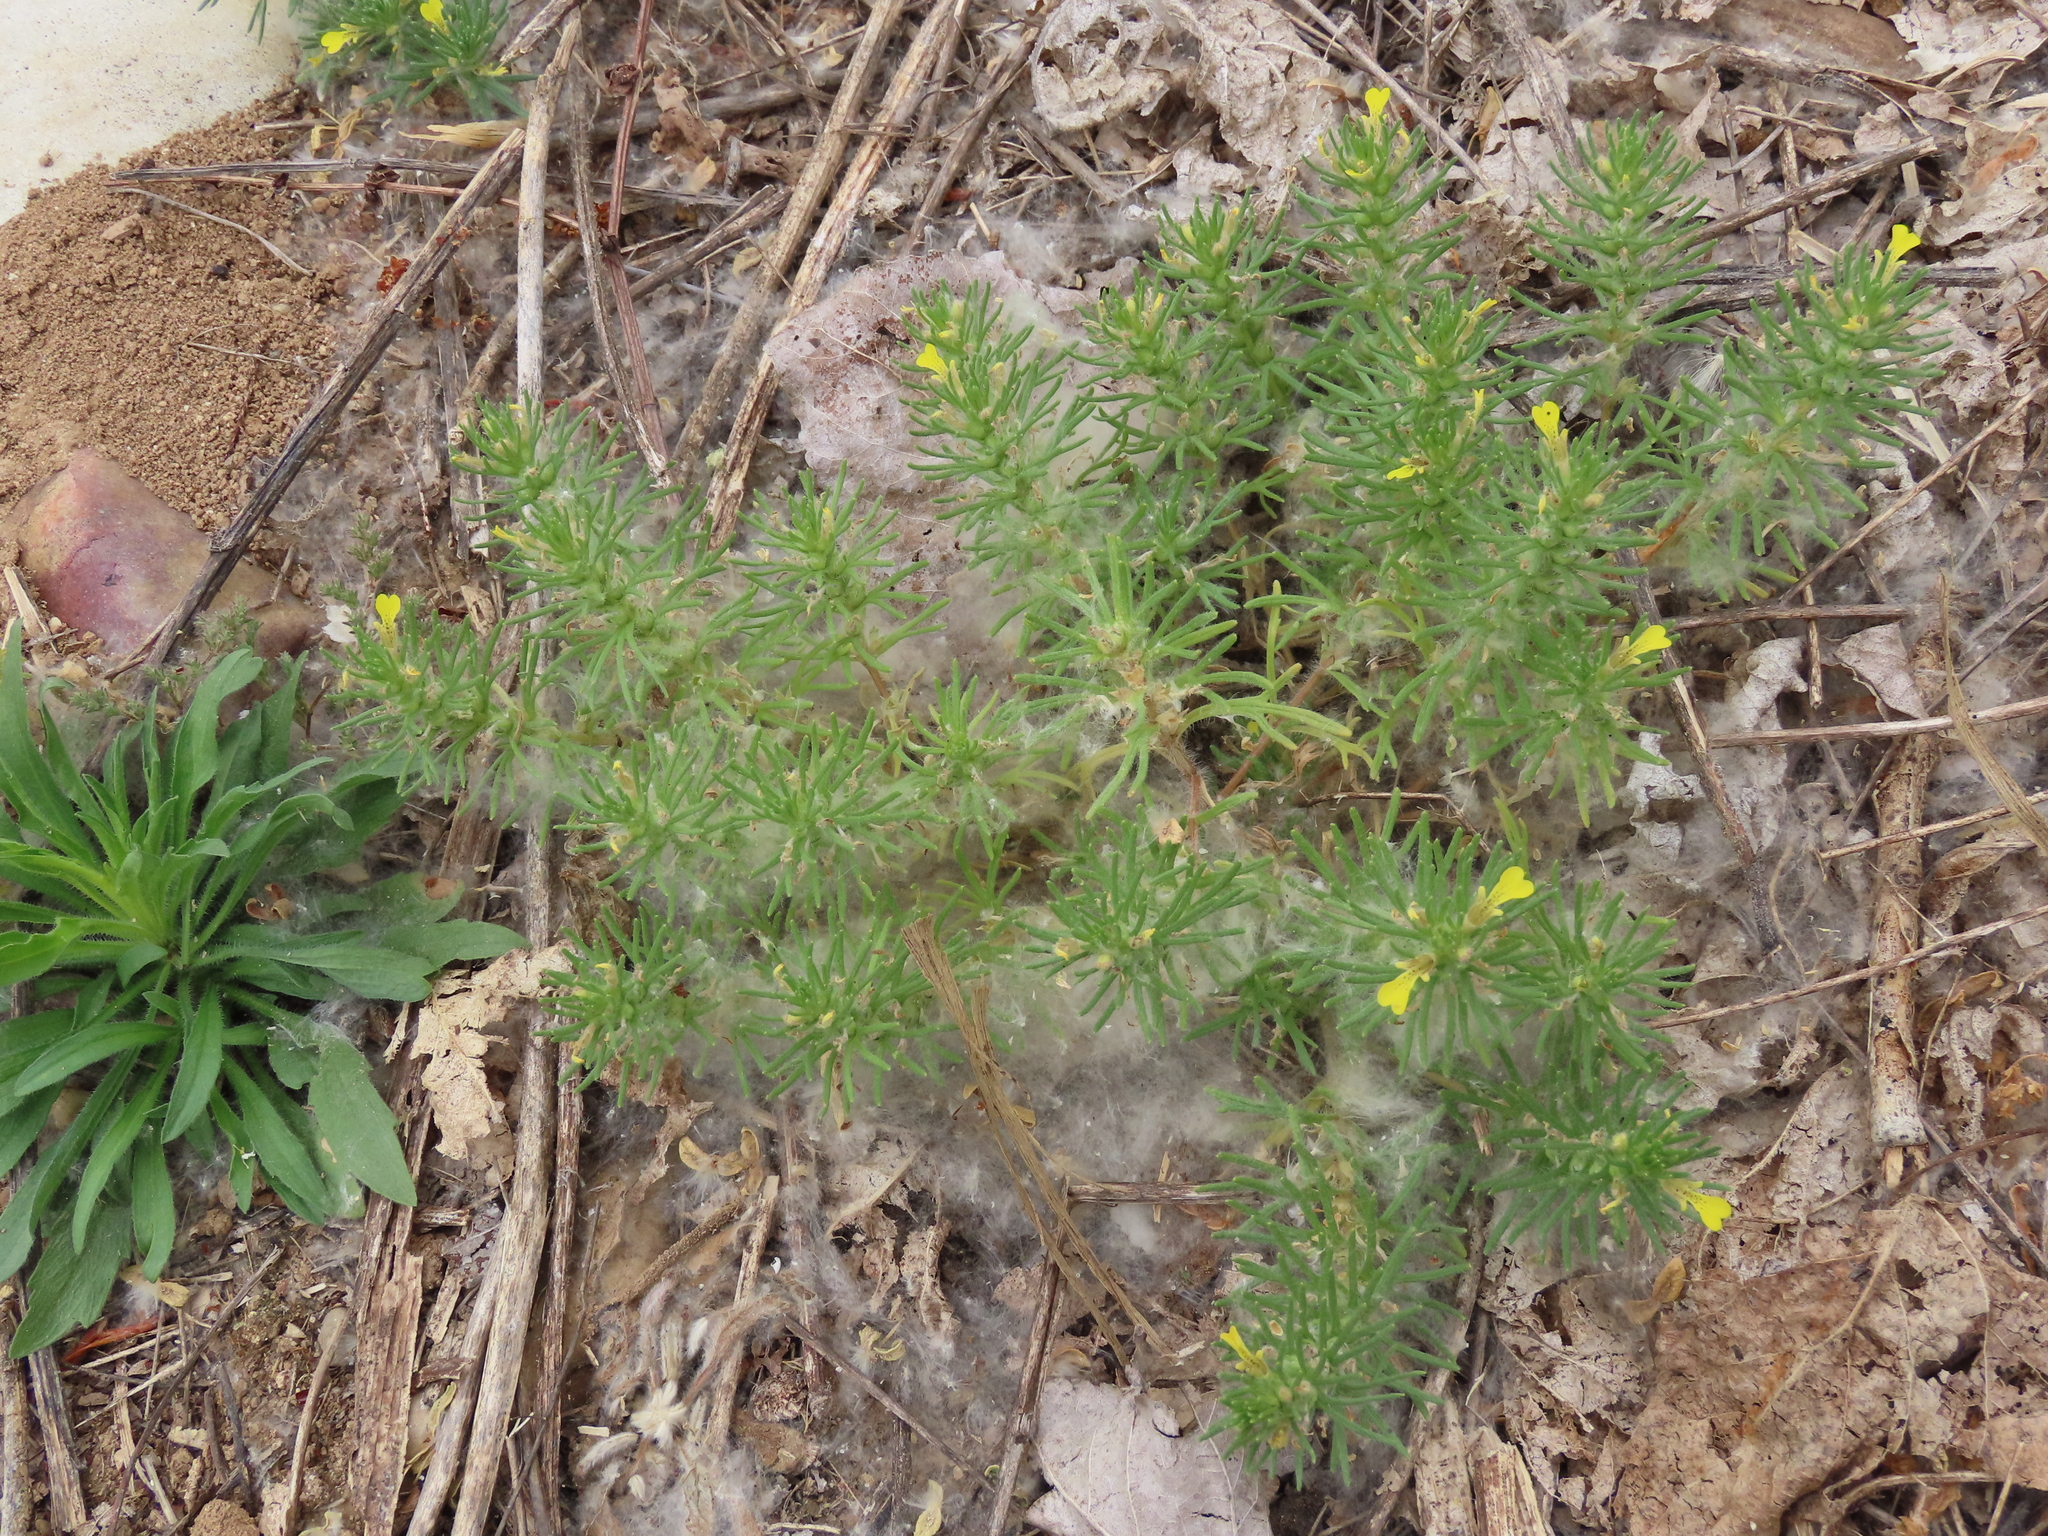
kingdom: Plantae
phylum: Tracheophyta
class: Magnoliopsida
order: Lamiales
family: Lamiaceae
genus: Ajuga
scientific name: Ajuga chamaepitys
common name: Ground-pine
